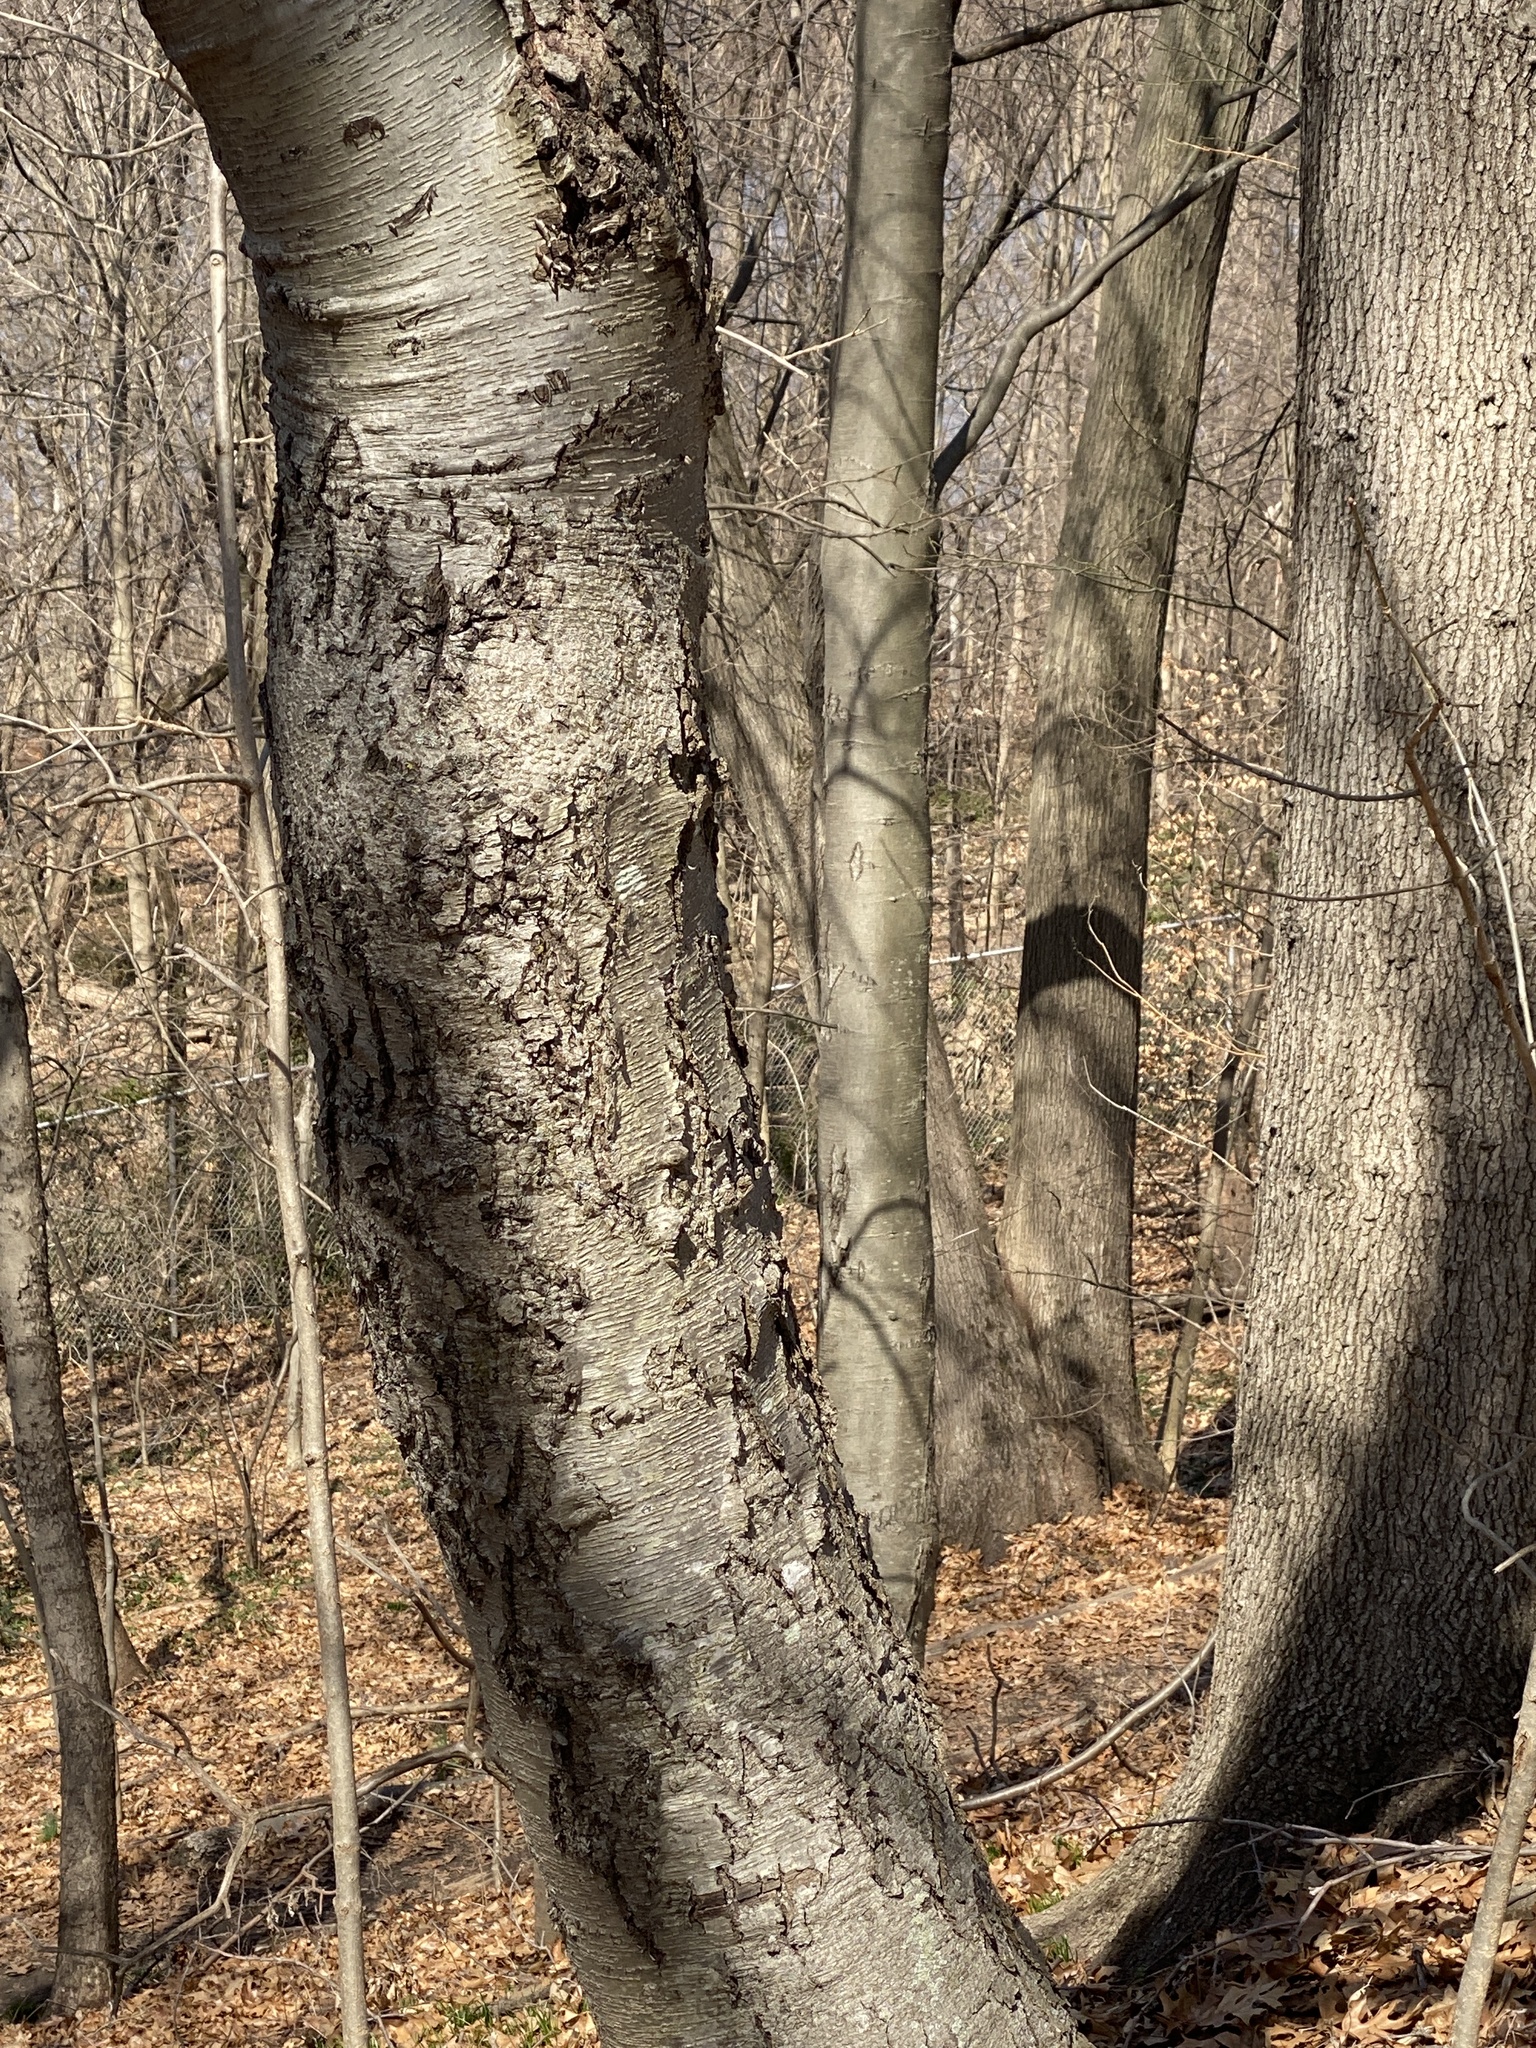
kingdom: Plantae
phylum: Tracheophyta
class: Magnoliopsida
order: Fagales
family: Betulaceae
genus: Betula
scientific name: Betula lenta
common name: Black birch
